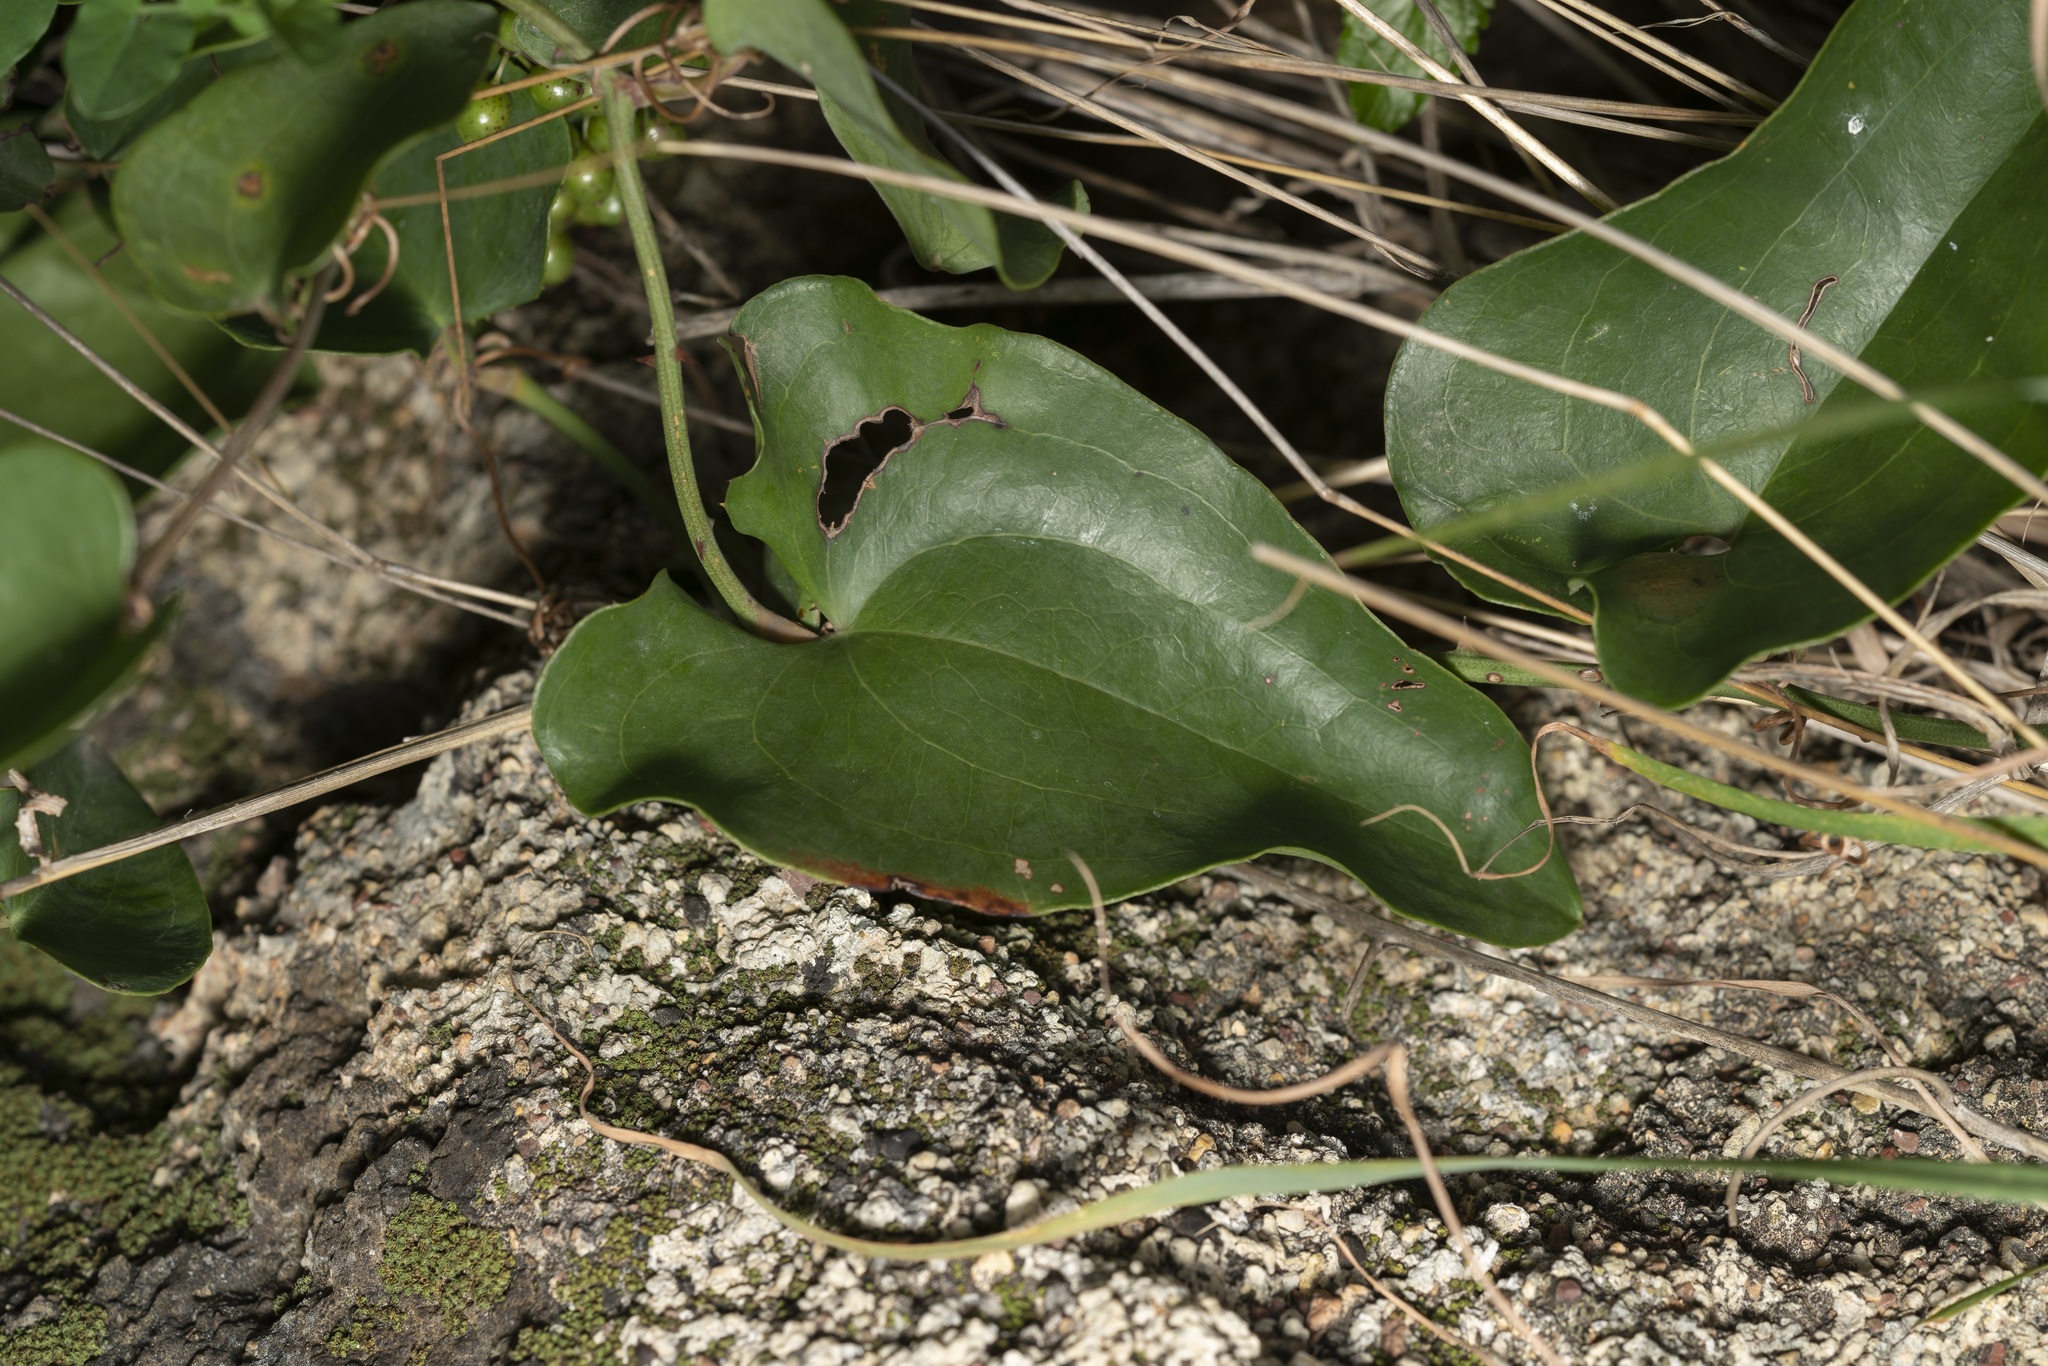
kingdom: Plantae
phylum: Tracheophyta
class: Liliopsida
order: Liliales
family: Smilacaceae
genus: Smilax
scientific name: Smilax aspera
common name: Common smilax
